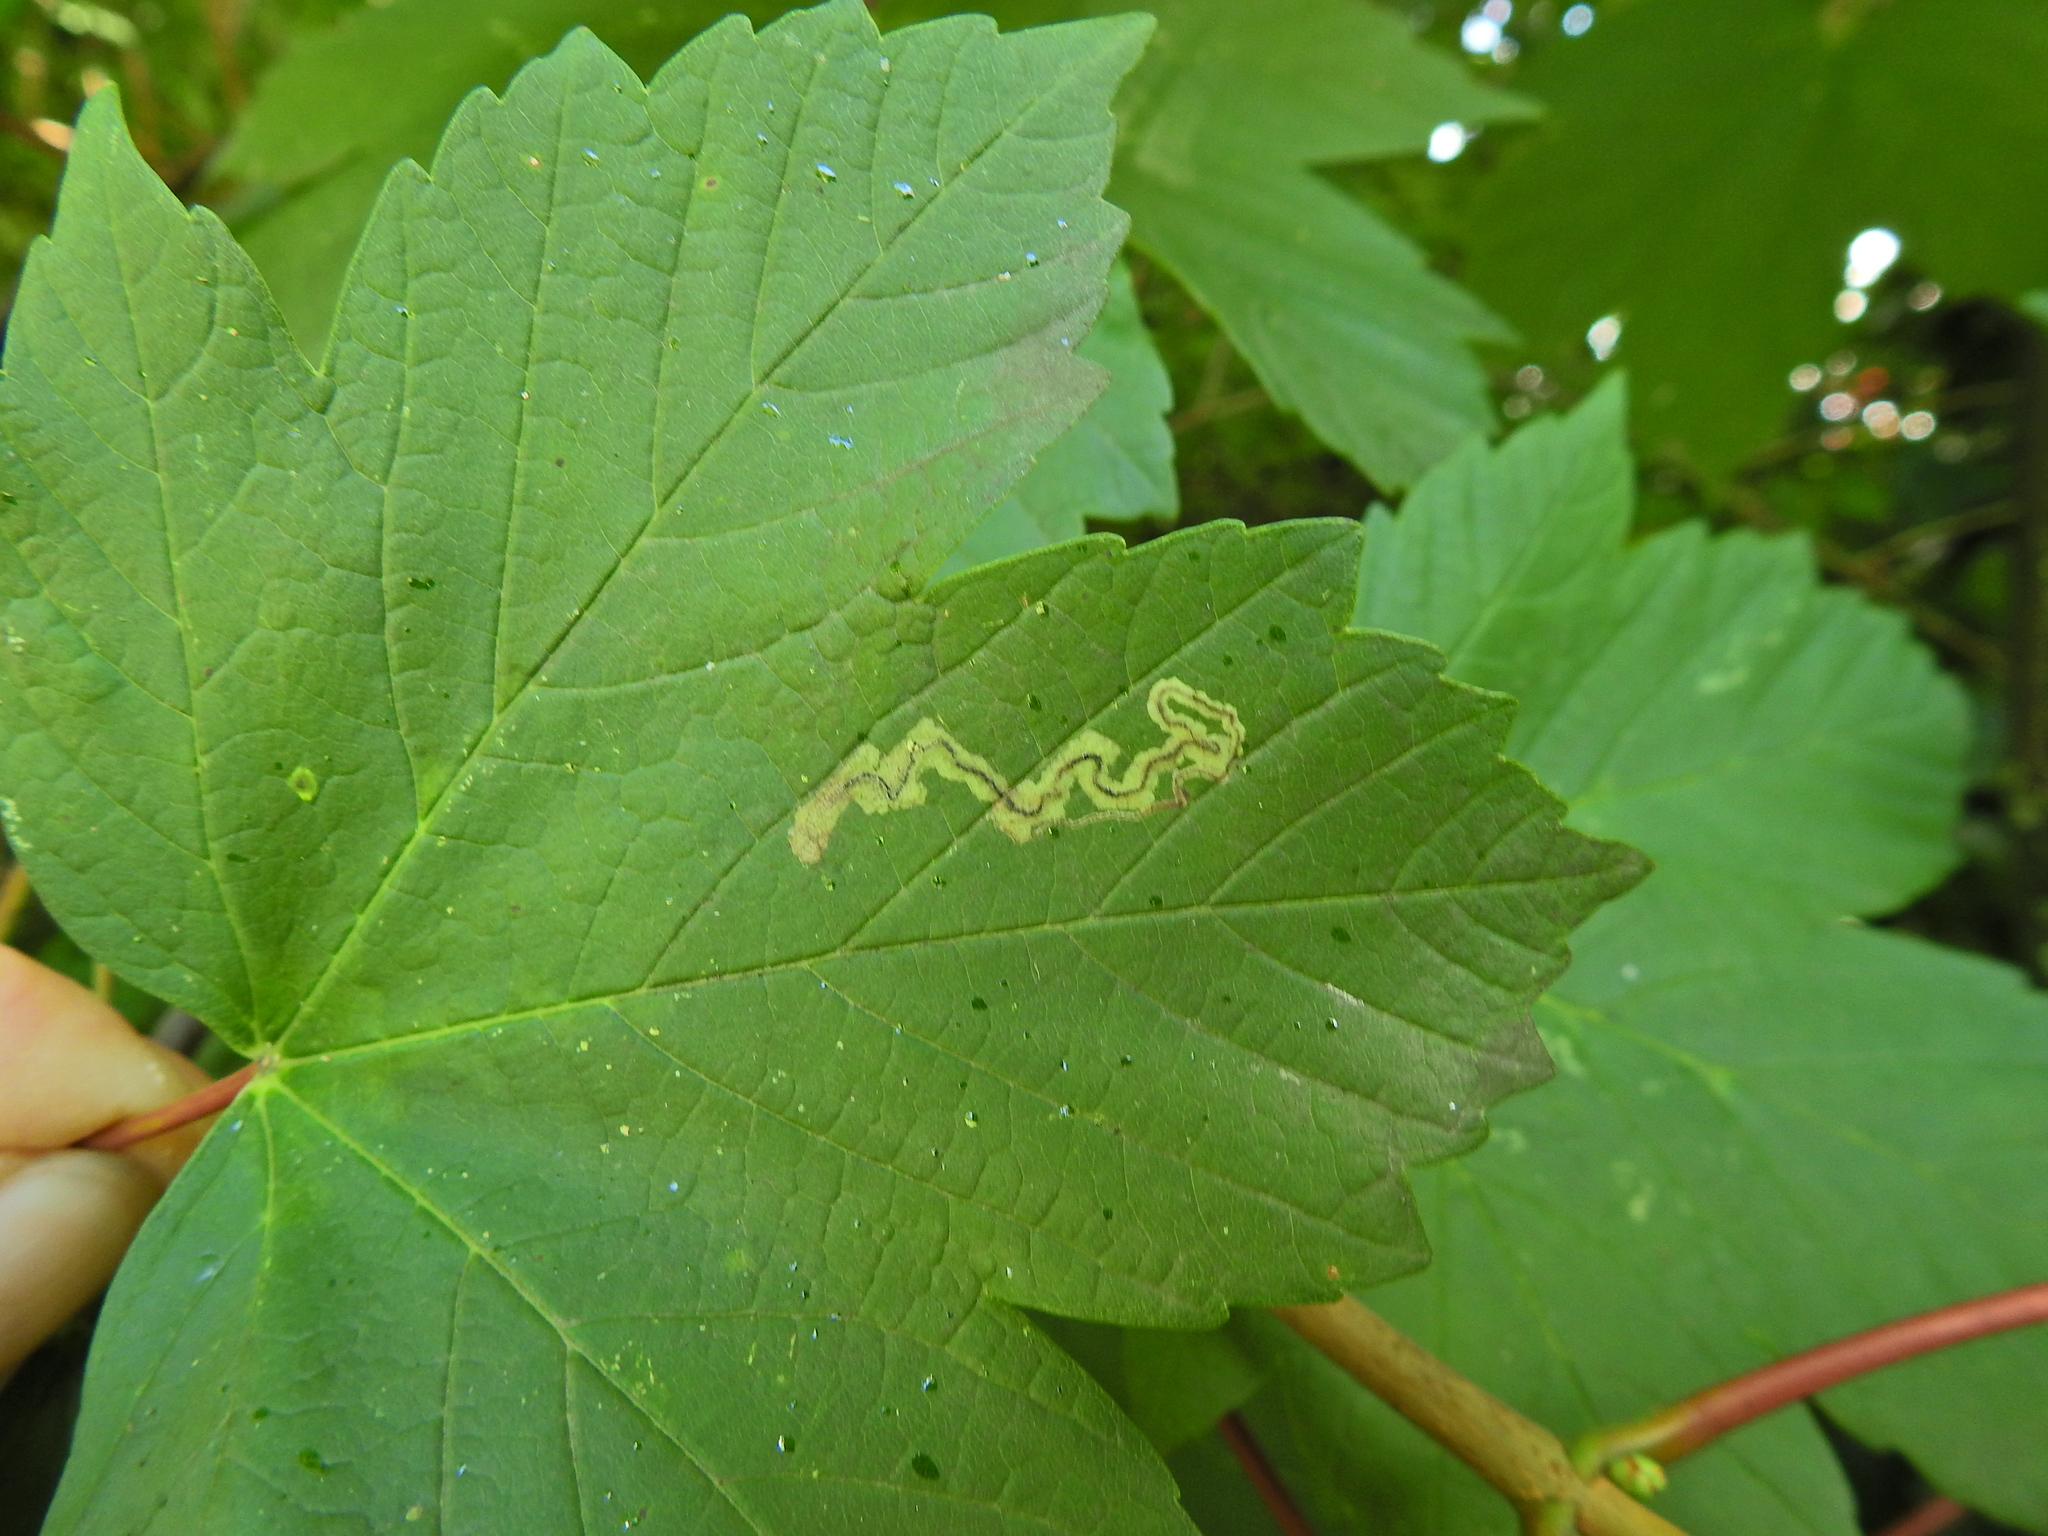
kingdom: Animalia
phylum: Arthropoda
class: Insecta
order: Lepidoptera
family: Nepticulidae
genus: Stigmella
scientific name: Stigmella speciosa
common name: Barred sycamore pigmy
